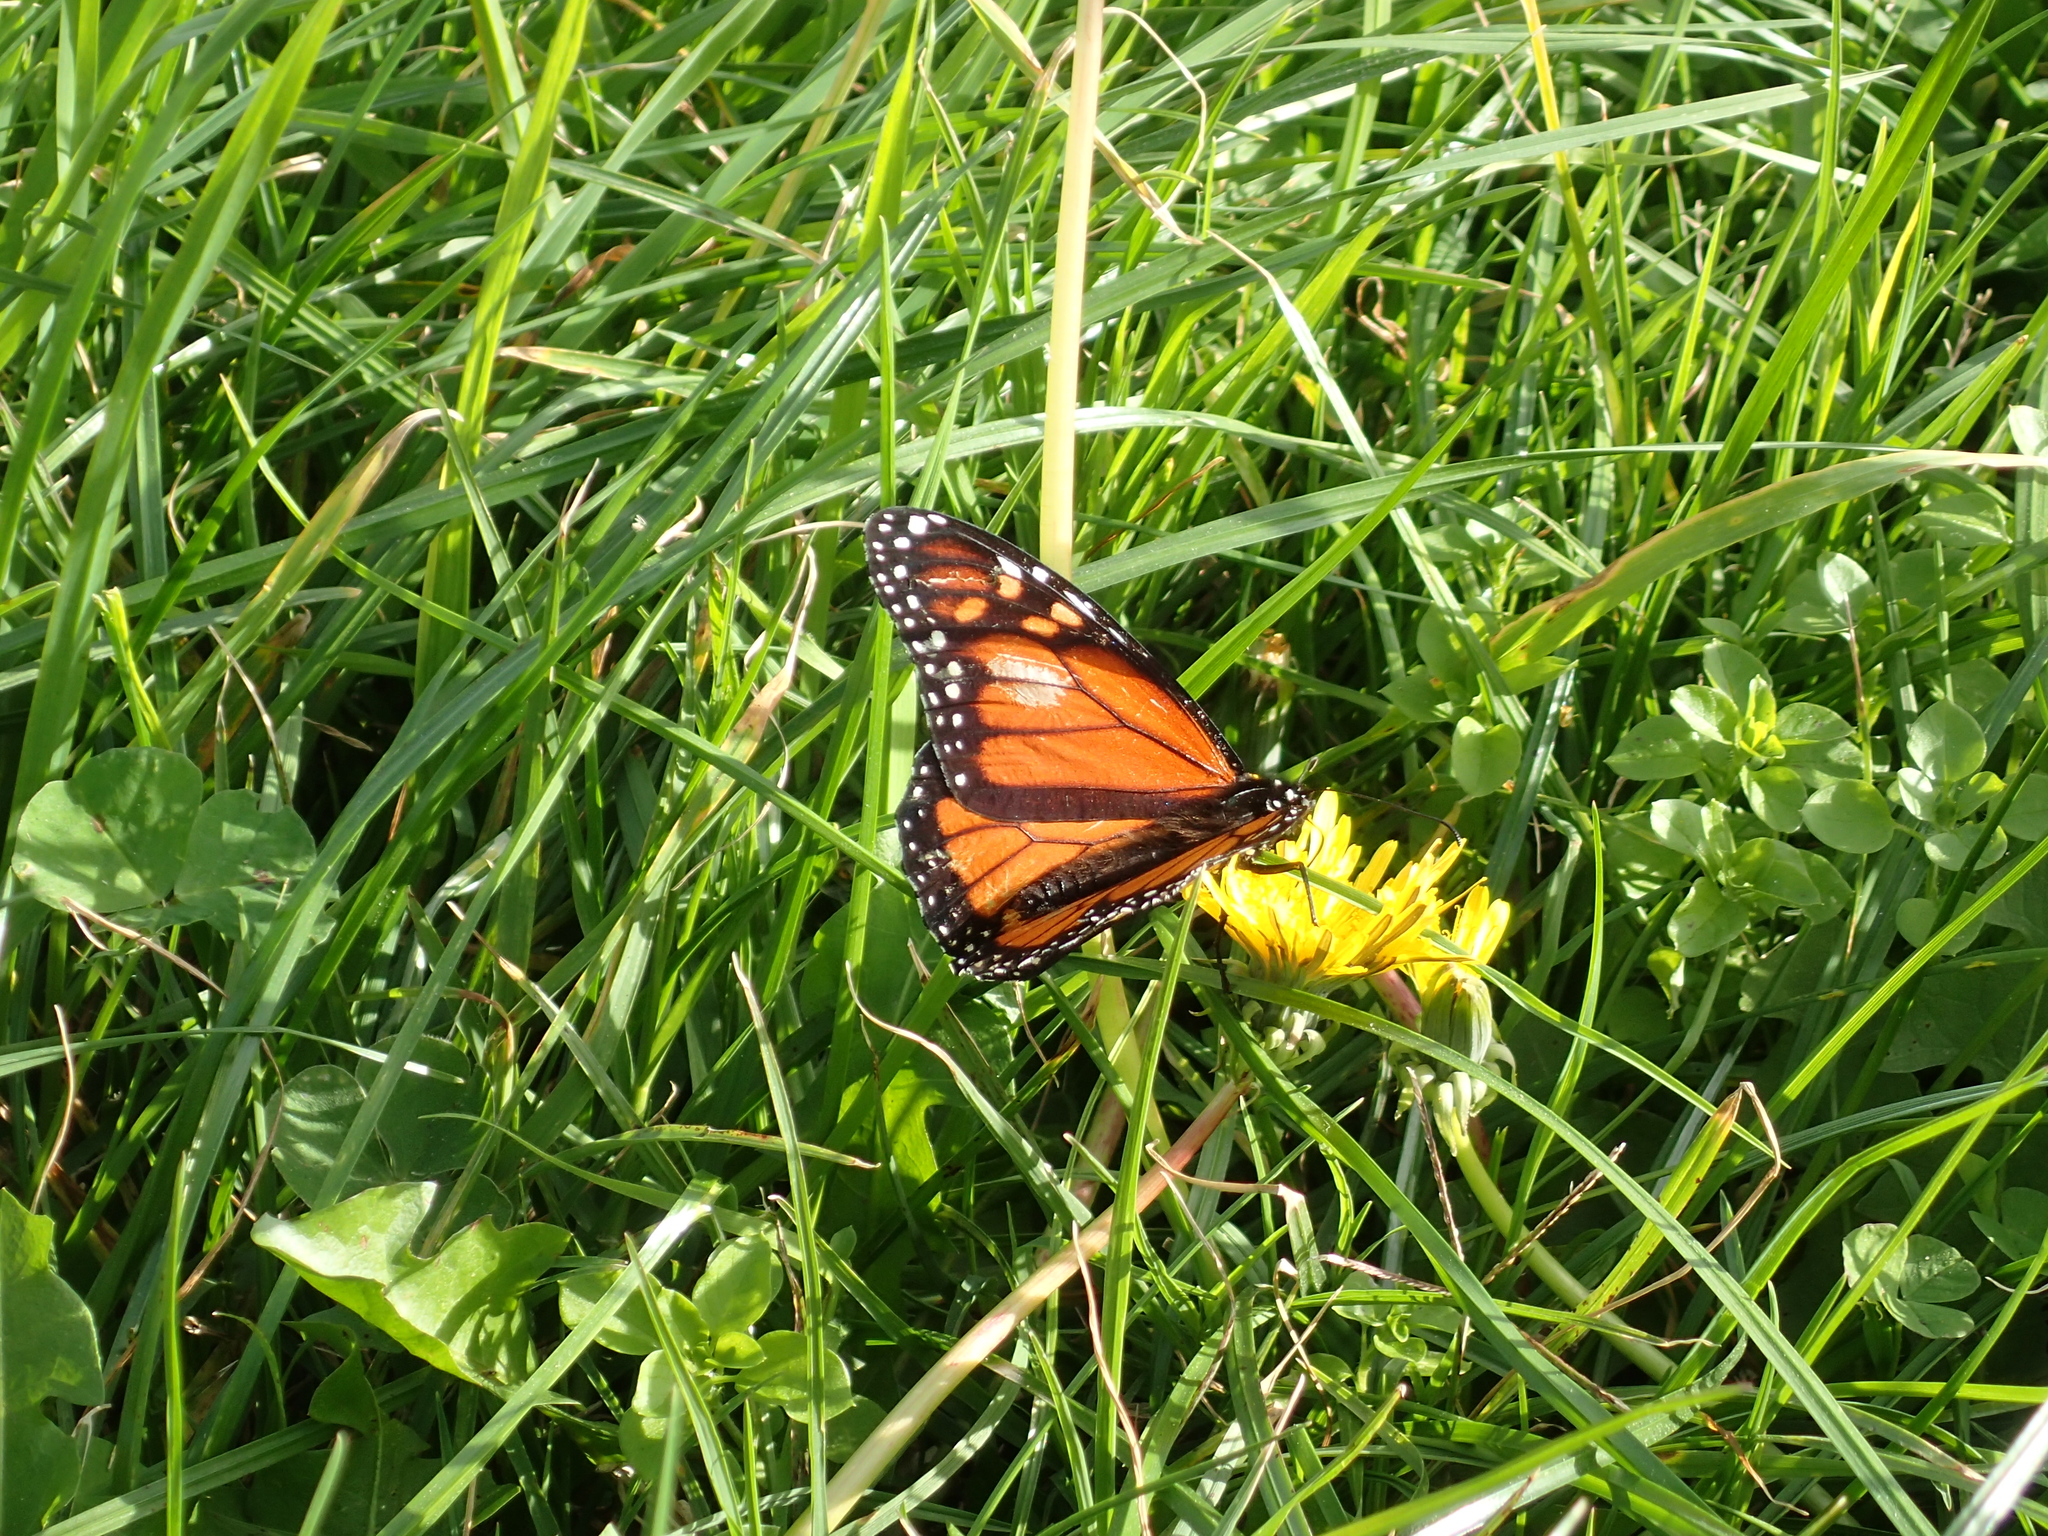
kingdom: Animalia
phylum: Arthropoda
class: Insecta
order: Lepidoptera
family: Nymphalidae
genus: Danaus
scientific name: Danaus plexippus
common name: Monarch
